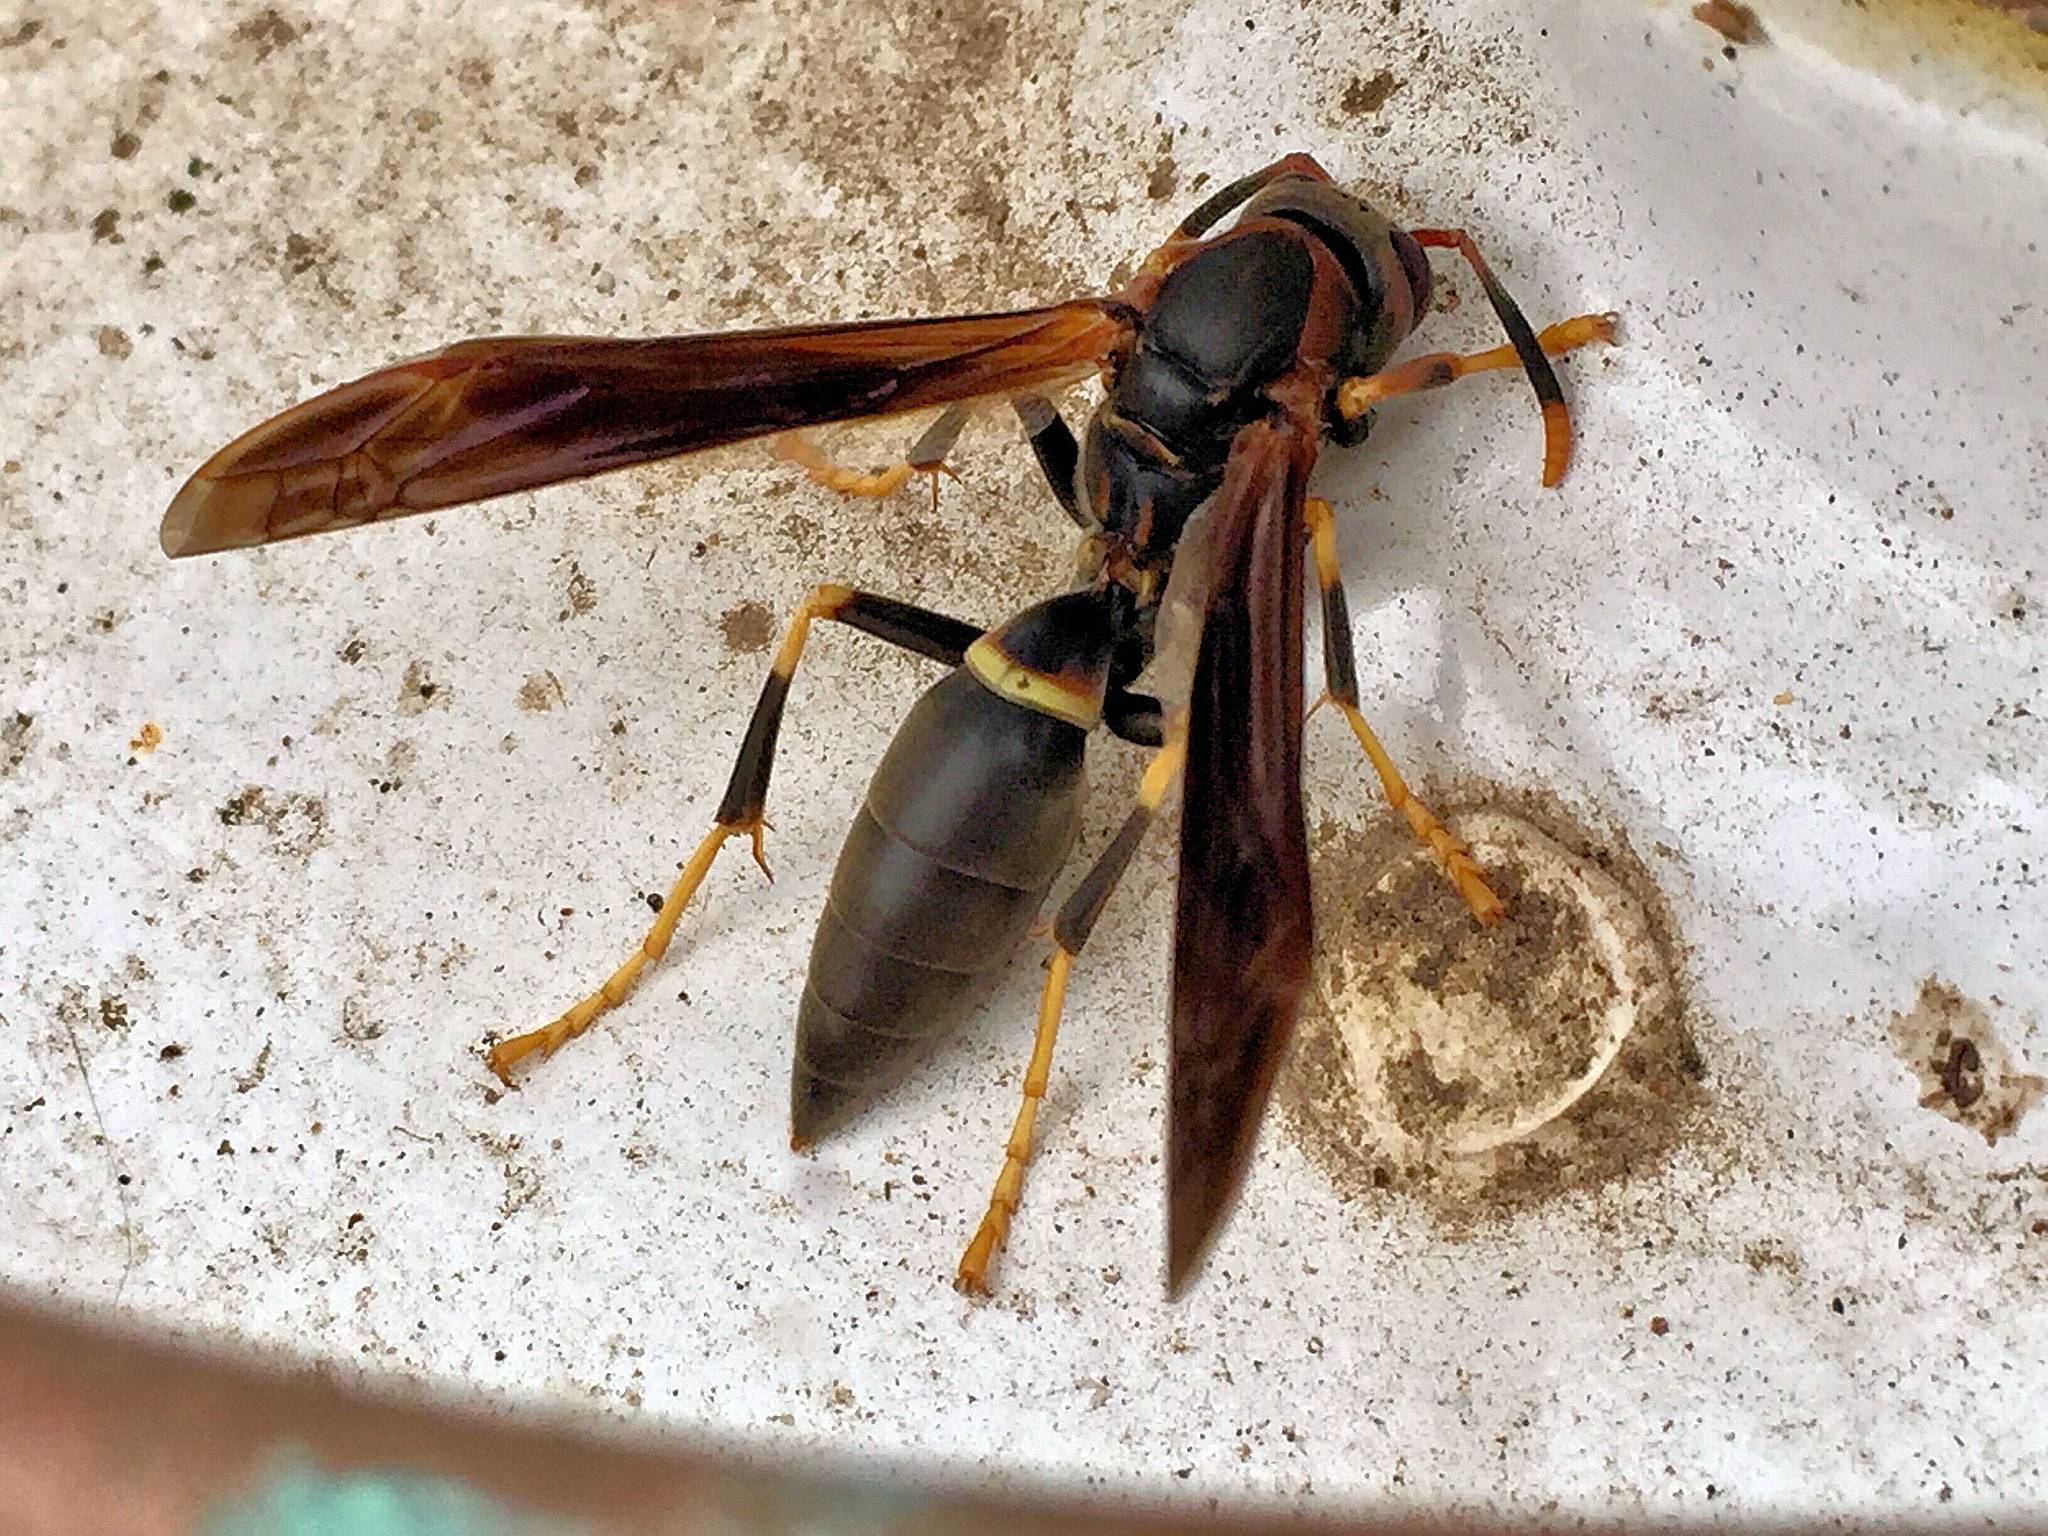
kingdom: Animalia
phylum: Arthropoda
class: Insecta
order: Hymenoptera
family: Eumenidae
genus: Polistes
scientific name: Polistes annularis
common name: Ringed paper wasp
